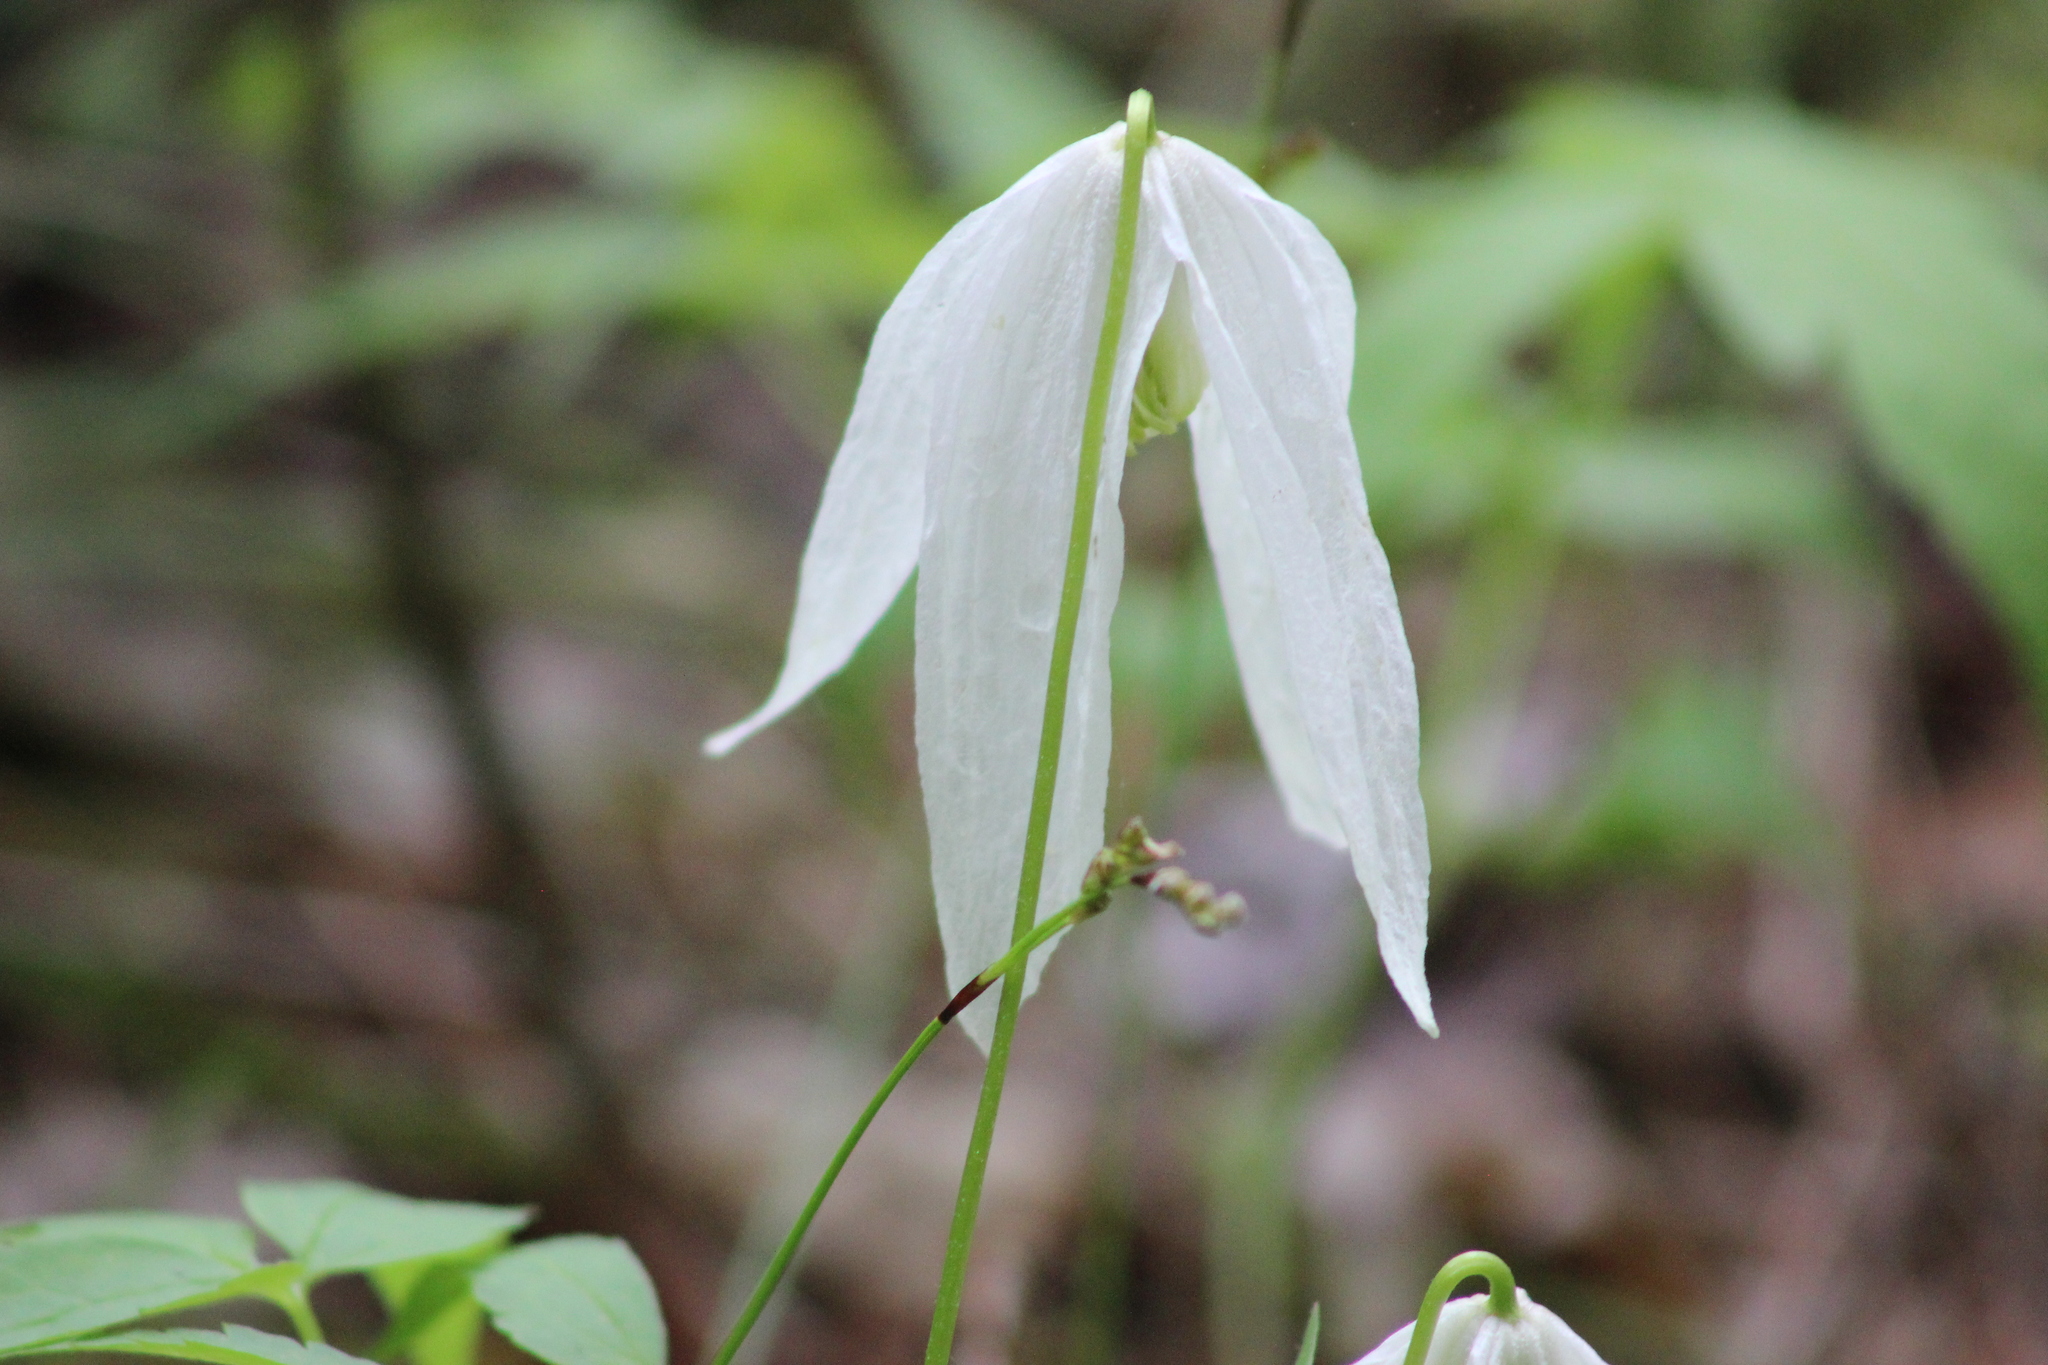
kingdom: Plantae
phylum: Tracheophyta
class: Magnoliopsida
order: Ranunculales
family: Ranunculaceae
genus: Clematis
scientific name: Clematis sibirica
